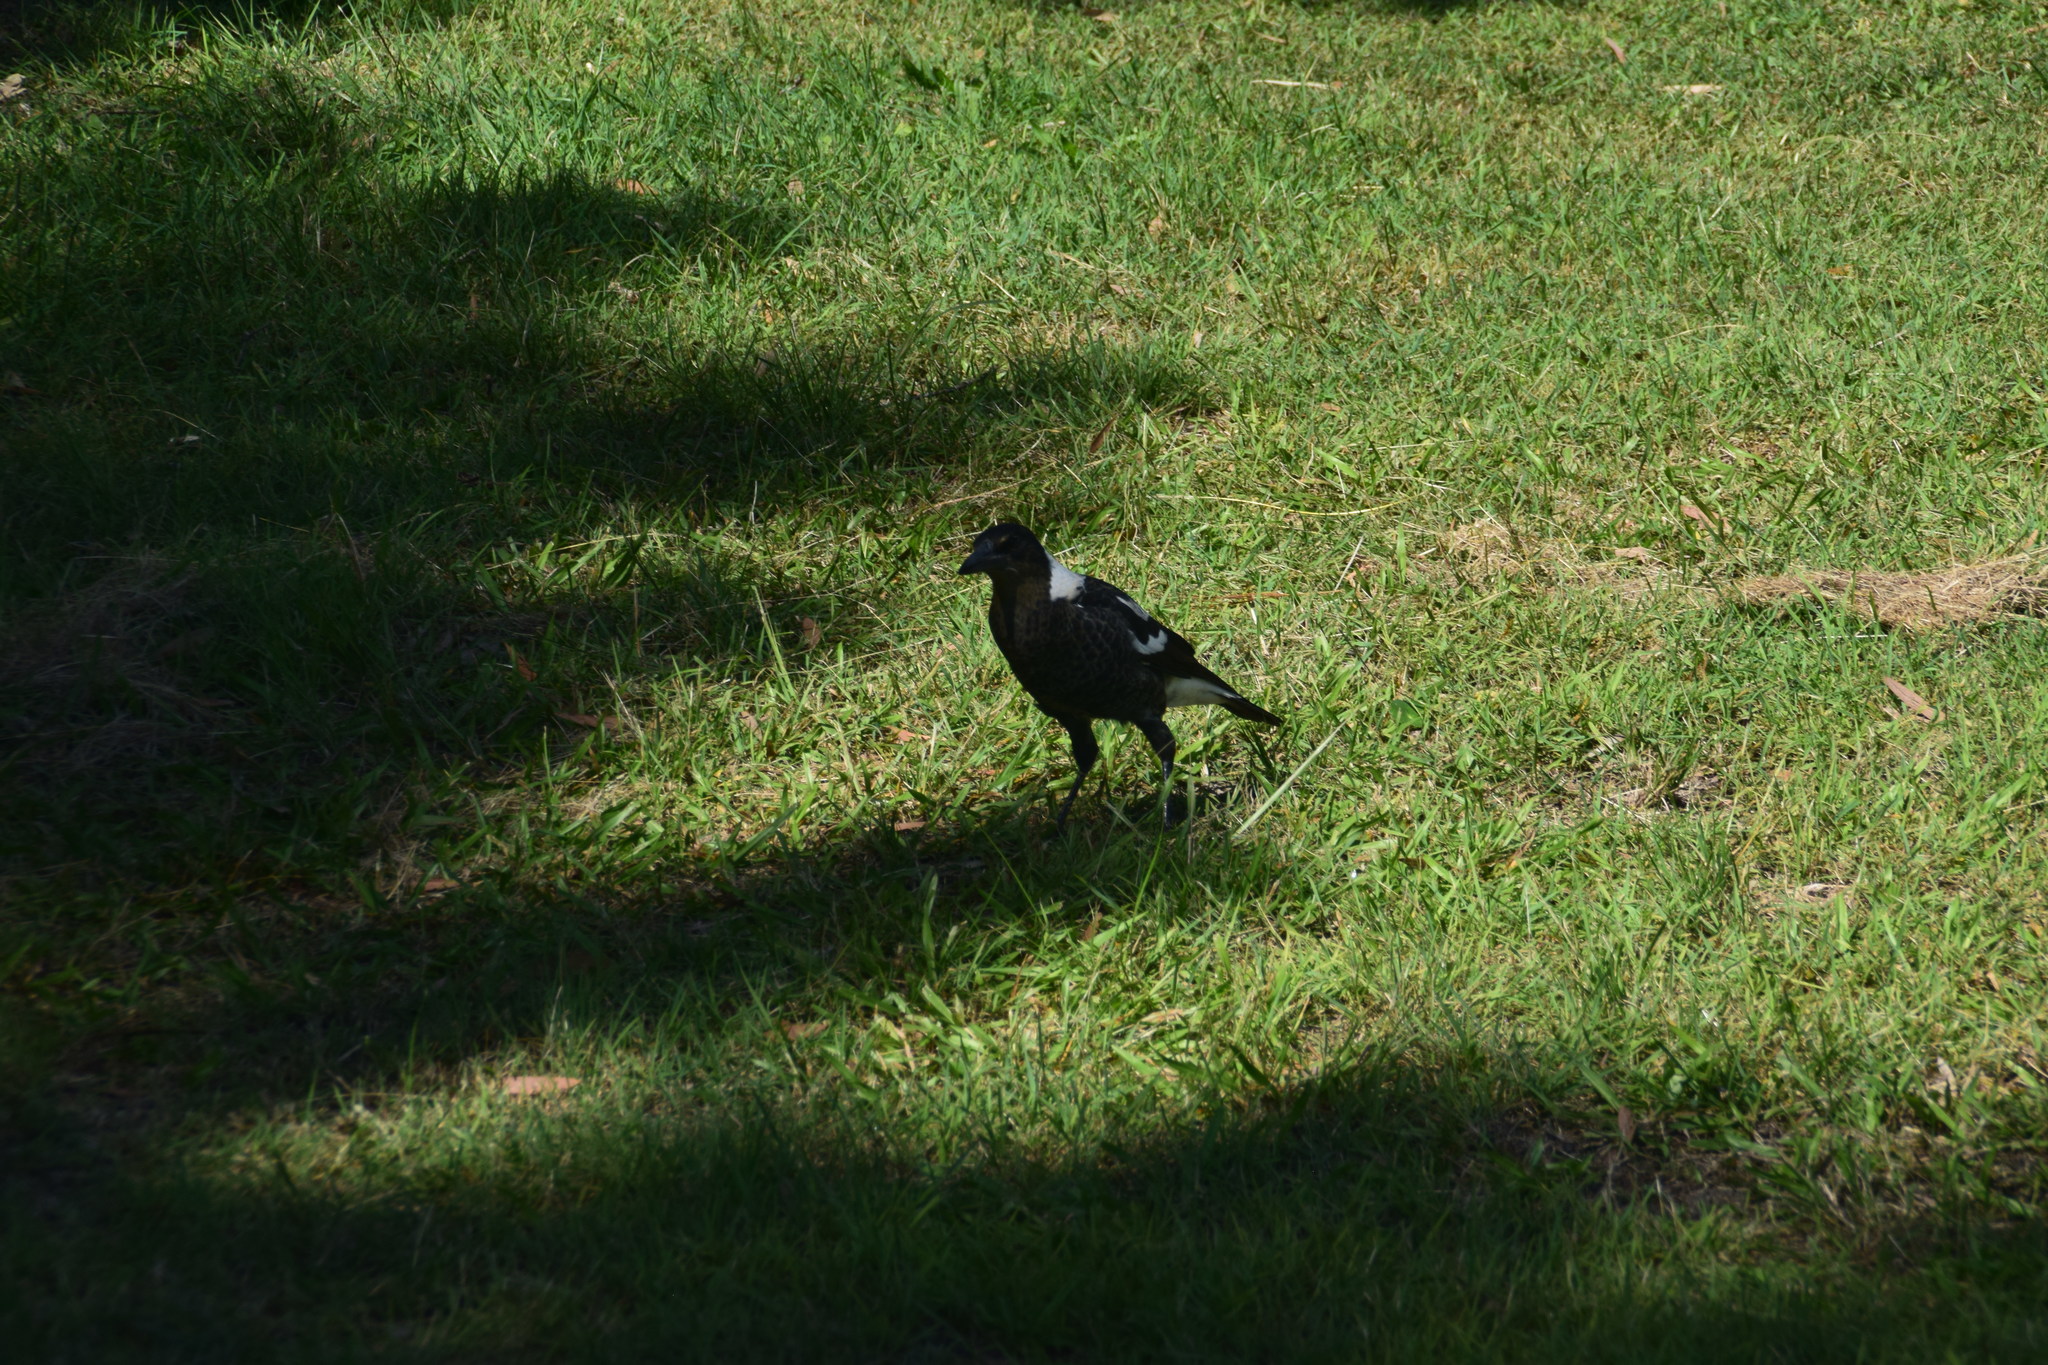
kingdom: Animalia
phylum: Chordata
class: Aves
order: Passeriformes
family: Cracticidae
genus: Gymnorhina
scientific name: Gymnorhina tibicen
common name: Australian magpie
